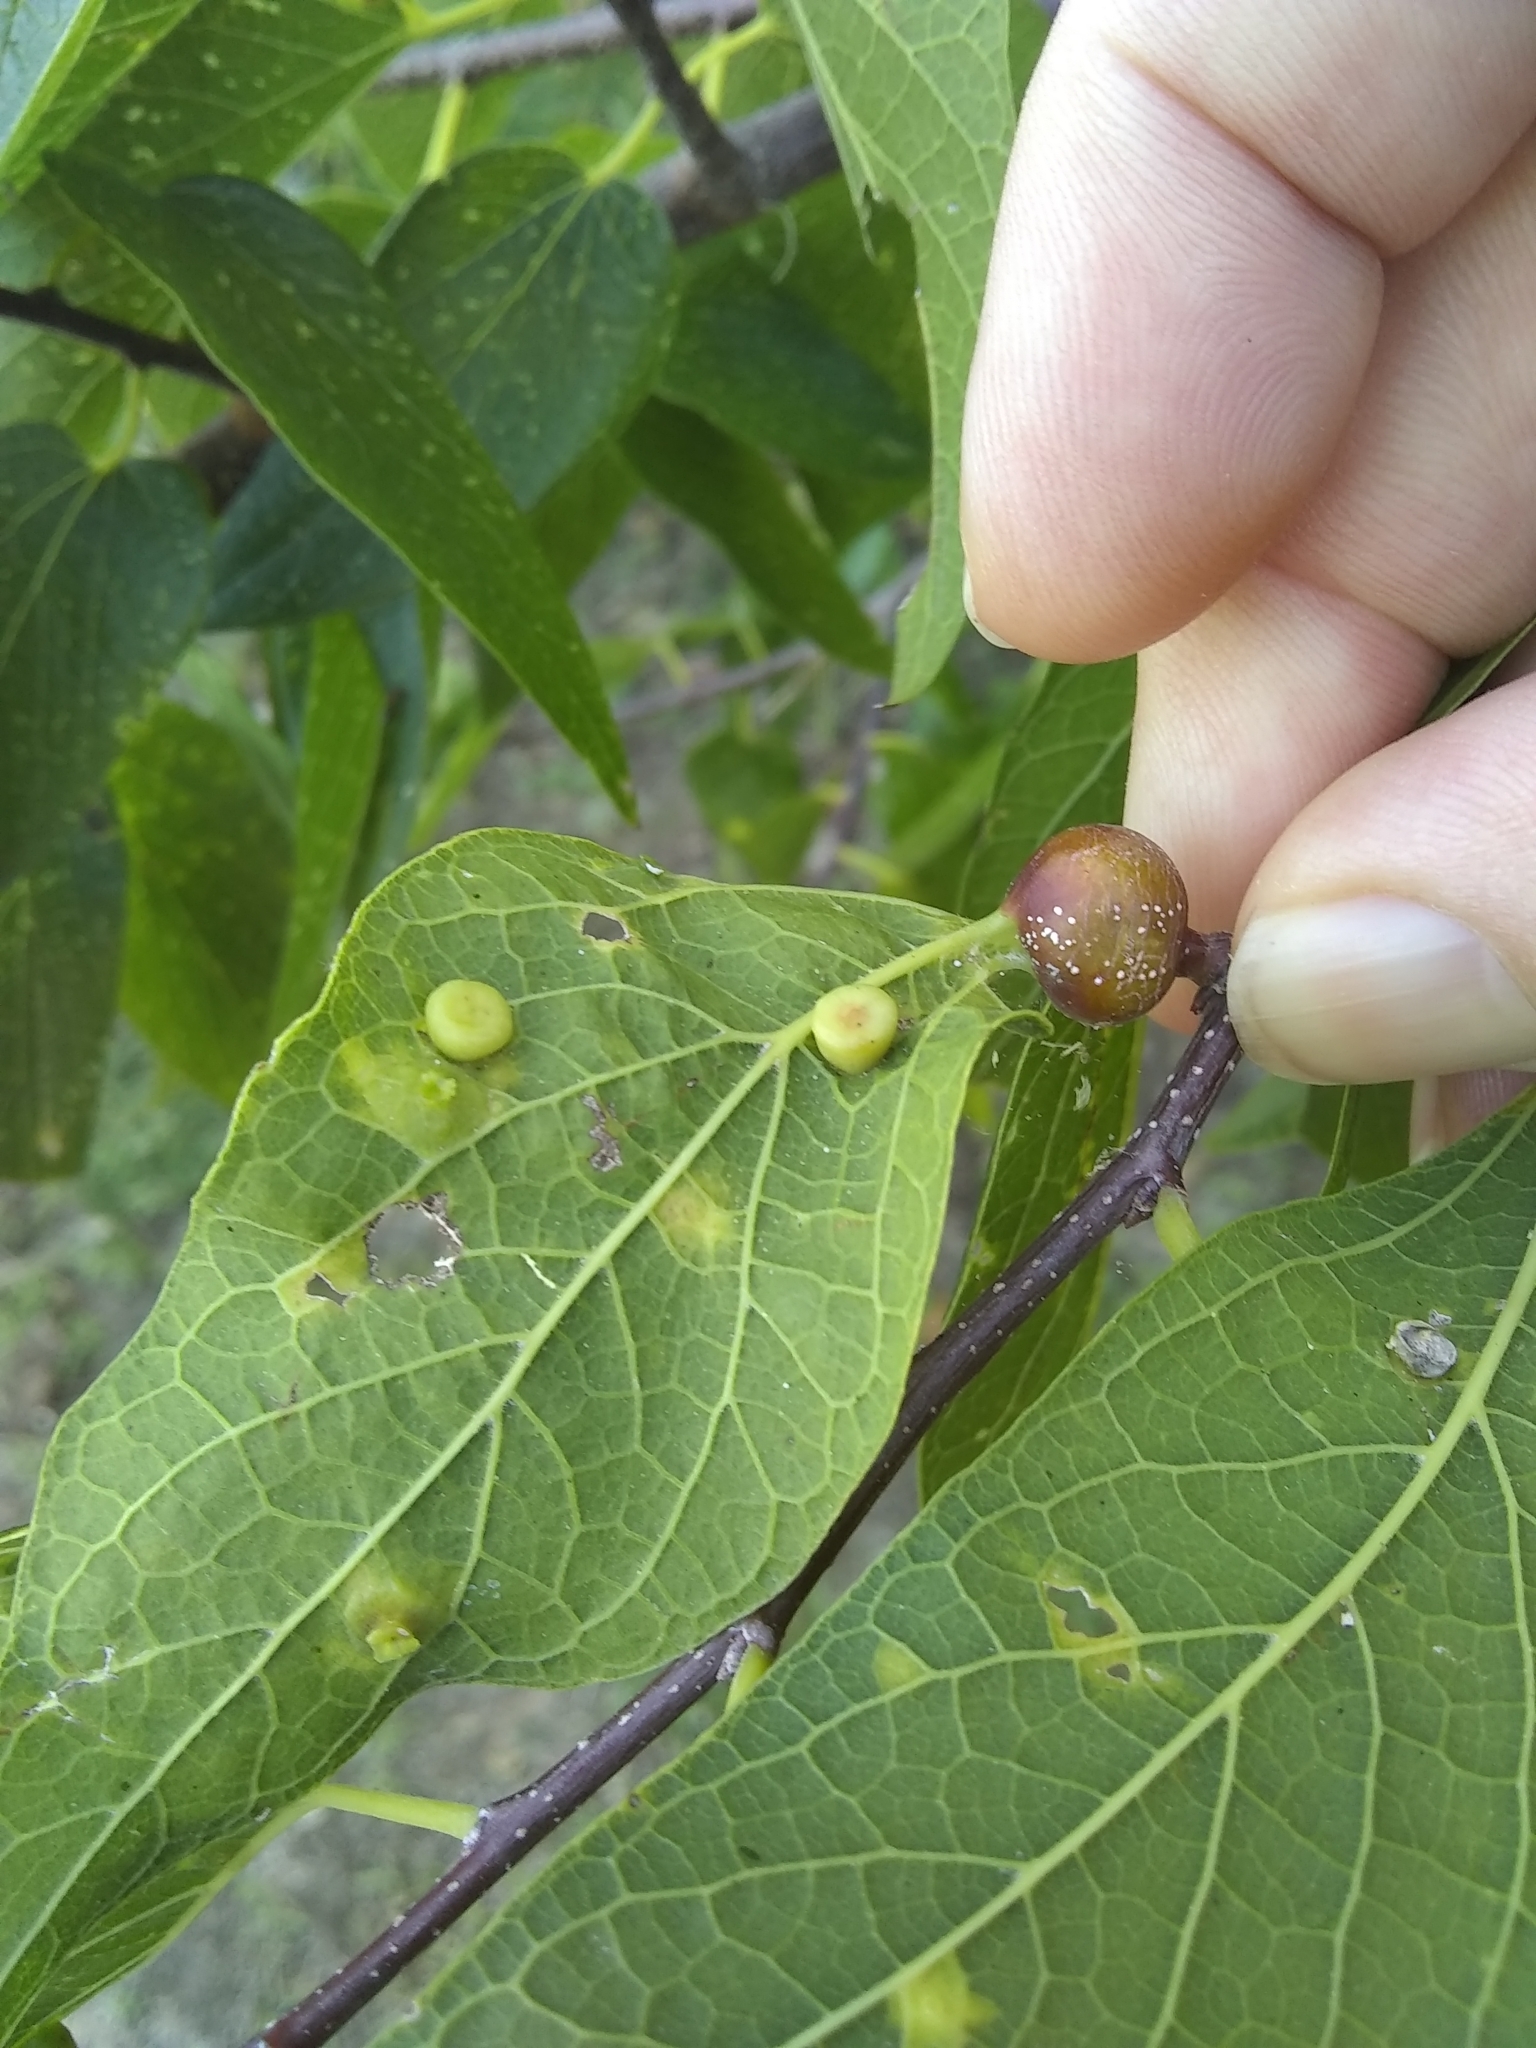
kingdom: Animalia
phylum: Arthropoda
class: Insecta
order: Hemiptera
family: Aphalaridae
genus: Pachypsylla
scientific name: Pachypsylla celtidismamma
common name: Hackberry nipplegall psyllid
